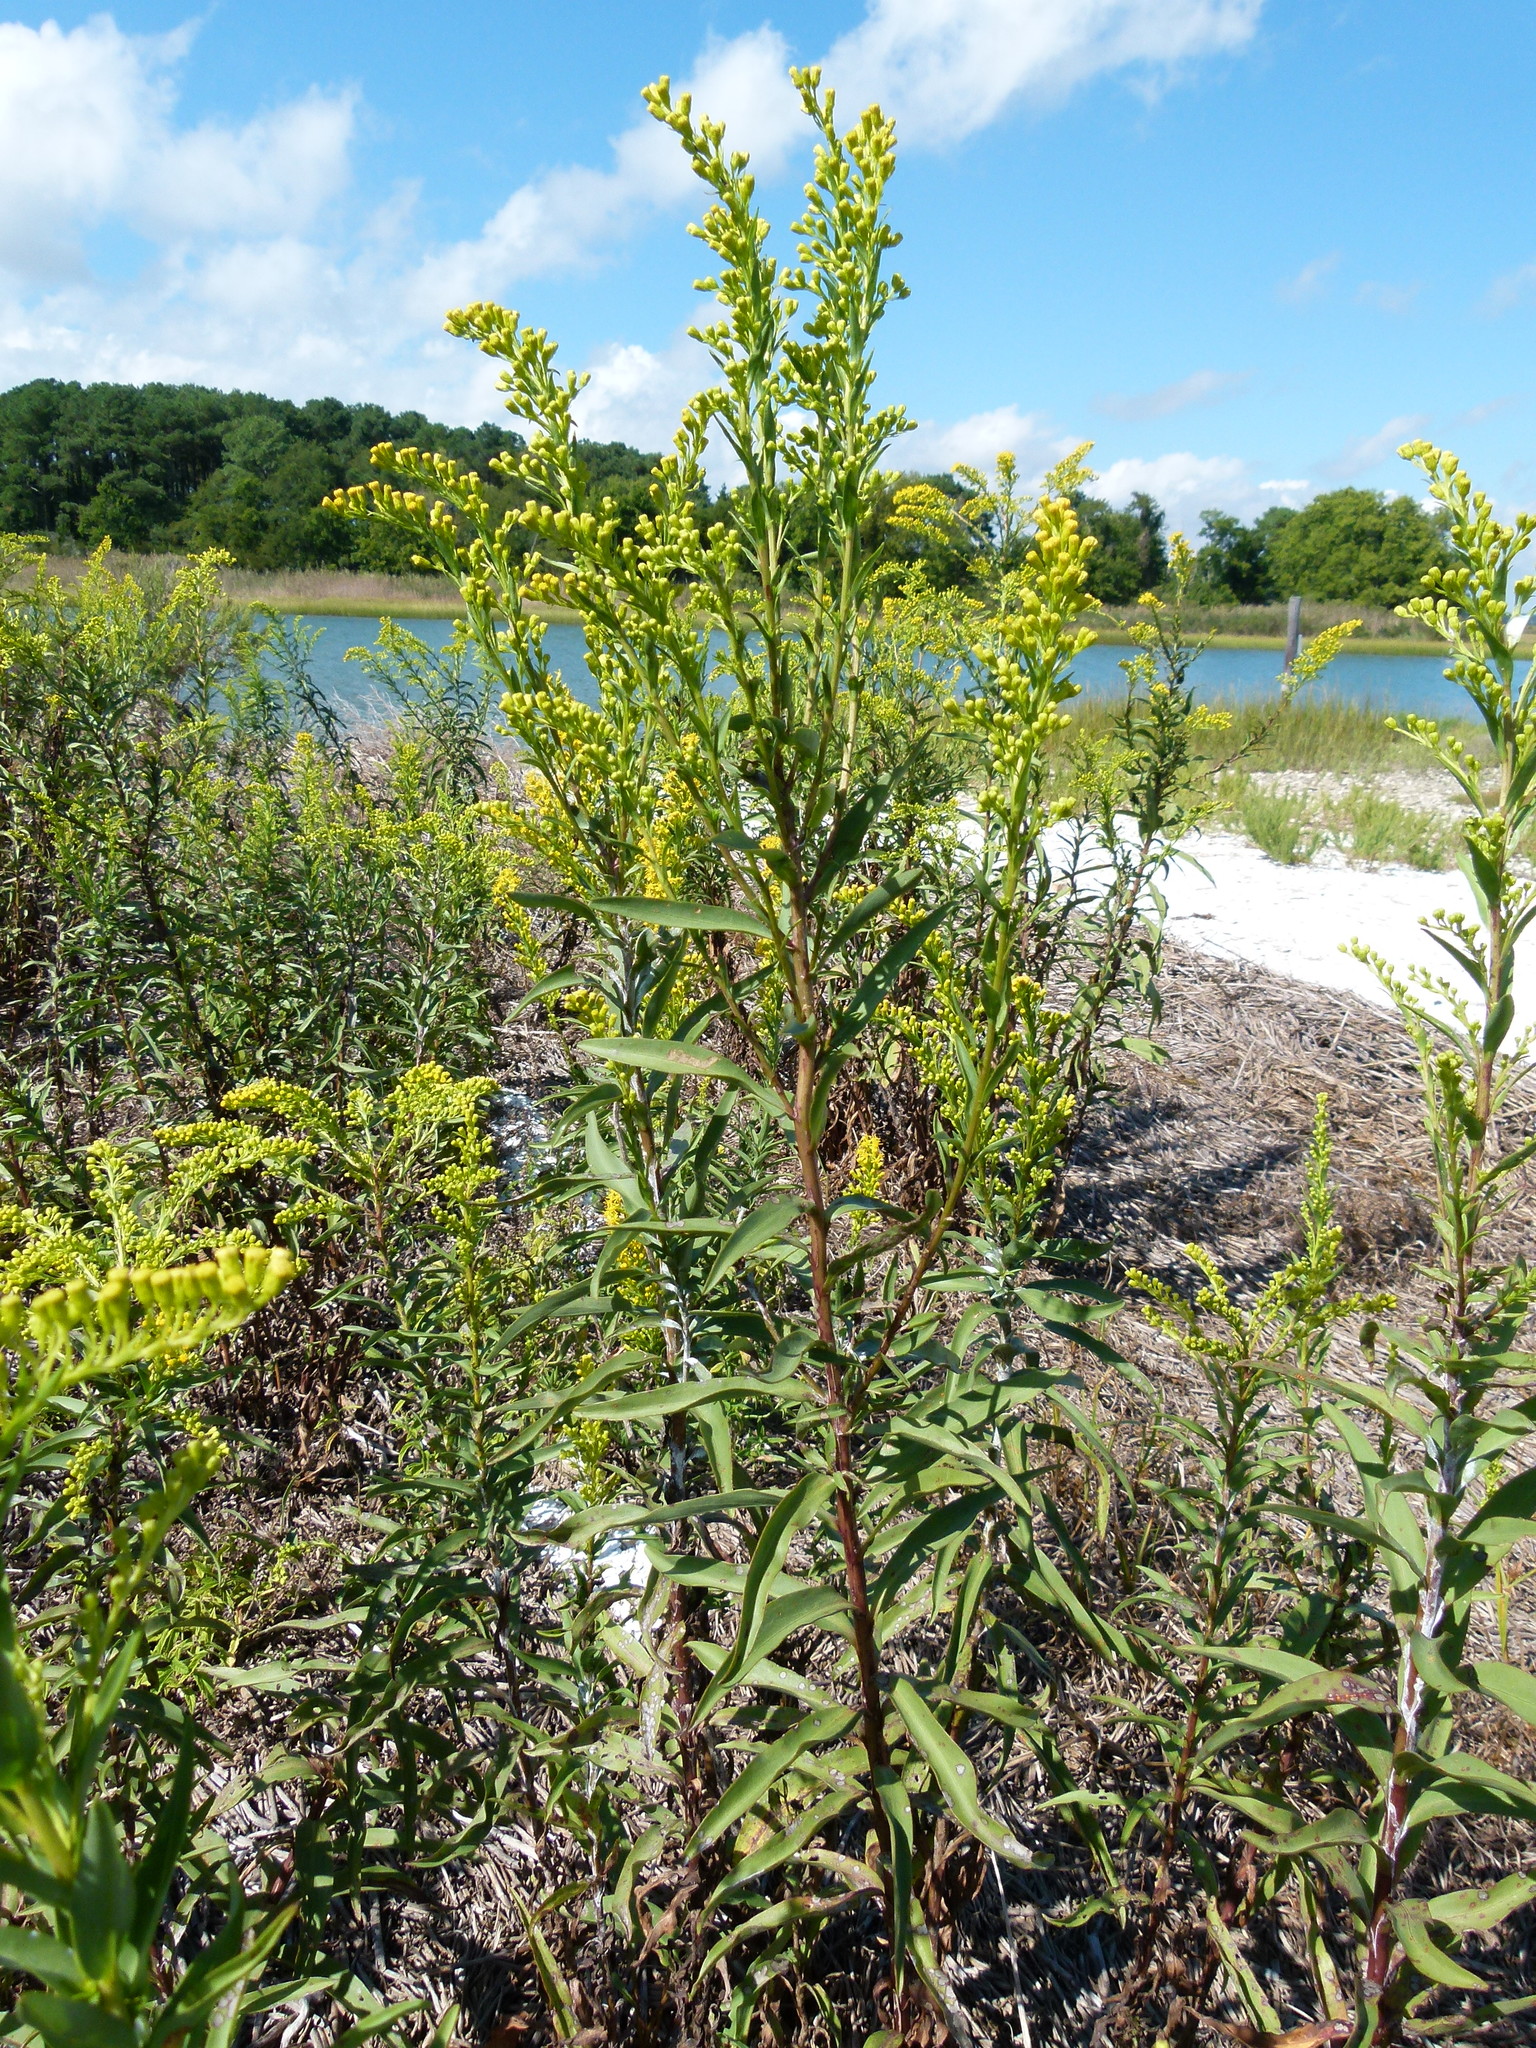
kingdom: Plantae
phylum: Tracheophyta
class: Magnoliopsida
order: Asterales
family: Asteraceae
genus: Solidago
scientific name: Solidago sempervirens
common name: Salt-marsh goldenrod
